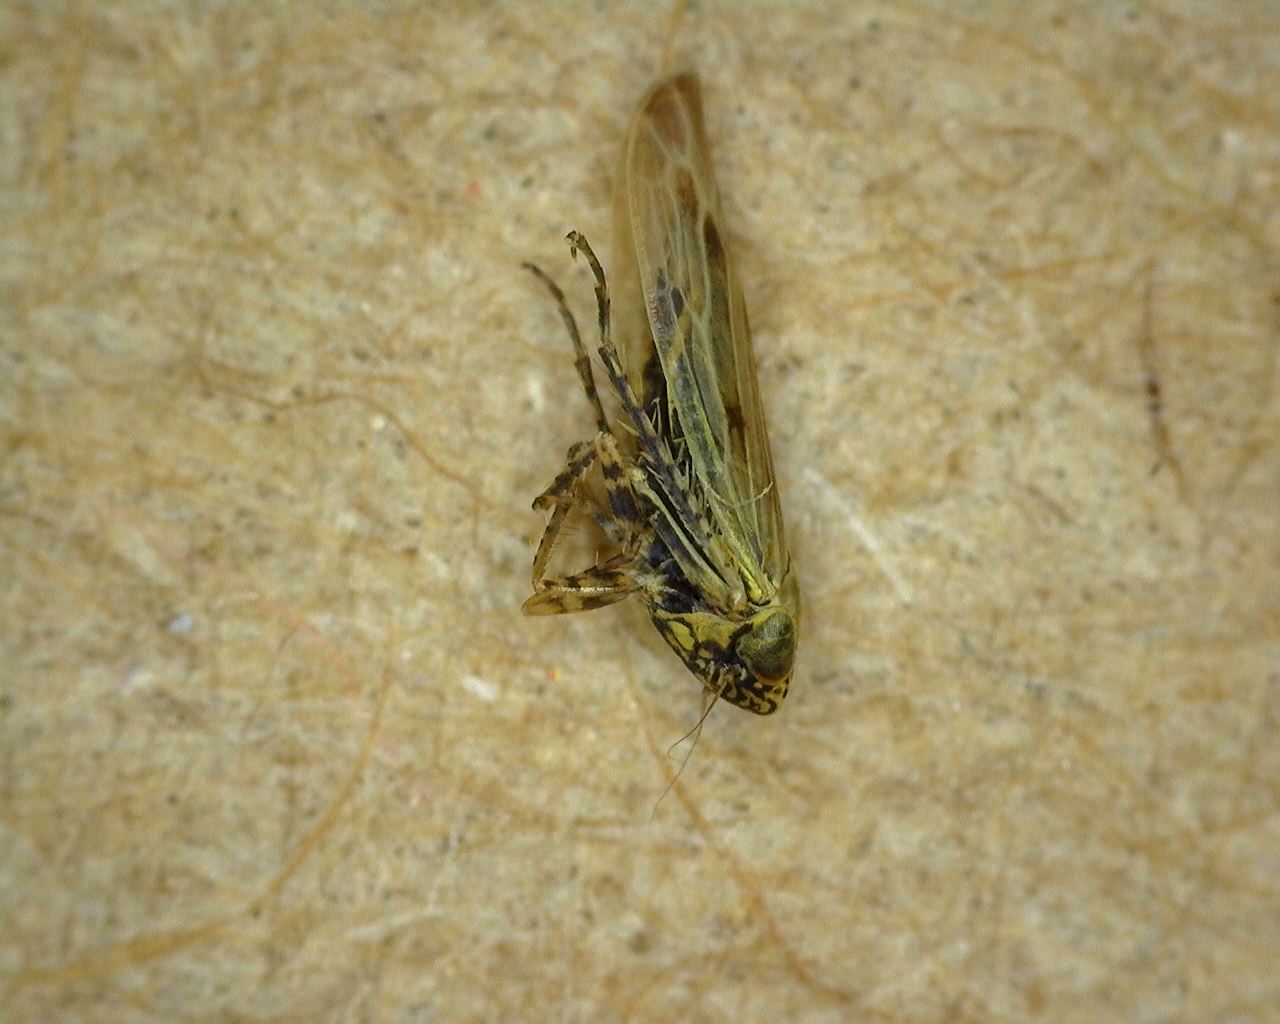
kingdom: Animalia
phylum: Arthropoda
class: Insecta
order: Hemiptera
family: Cicadellidae
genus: Graminella
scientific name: Graminella nigrifrons
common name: Blackfaced leafhopper
